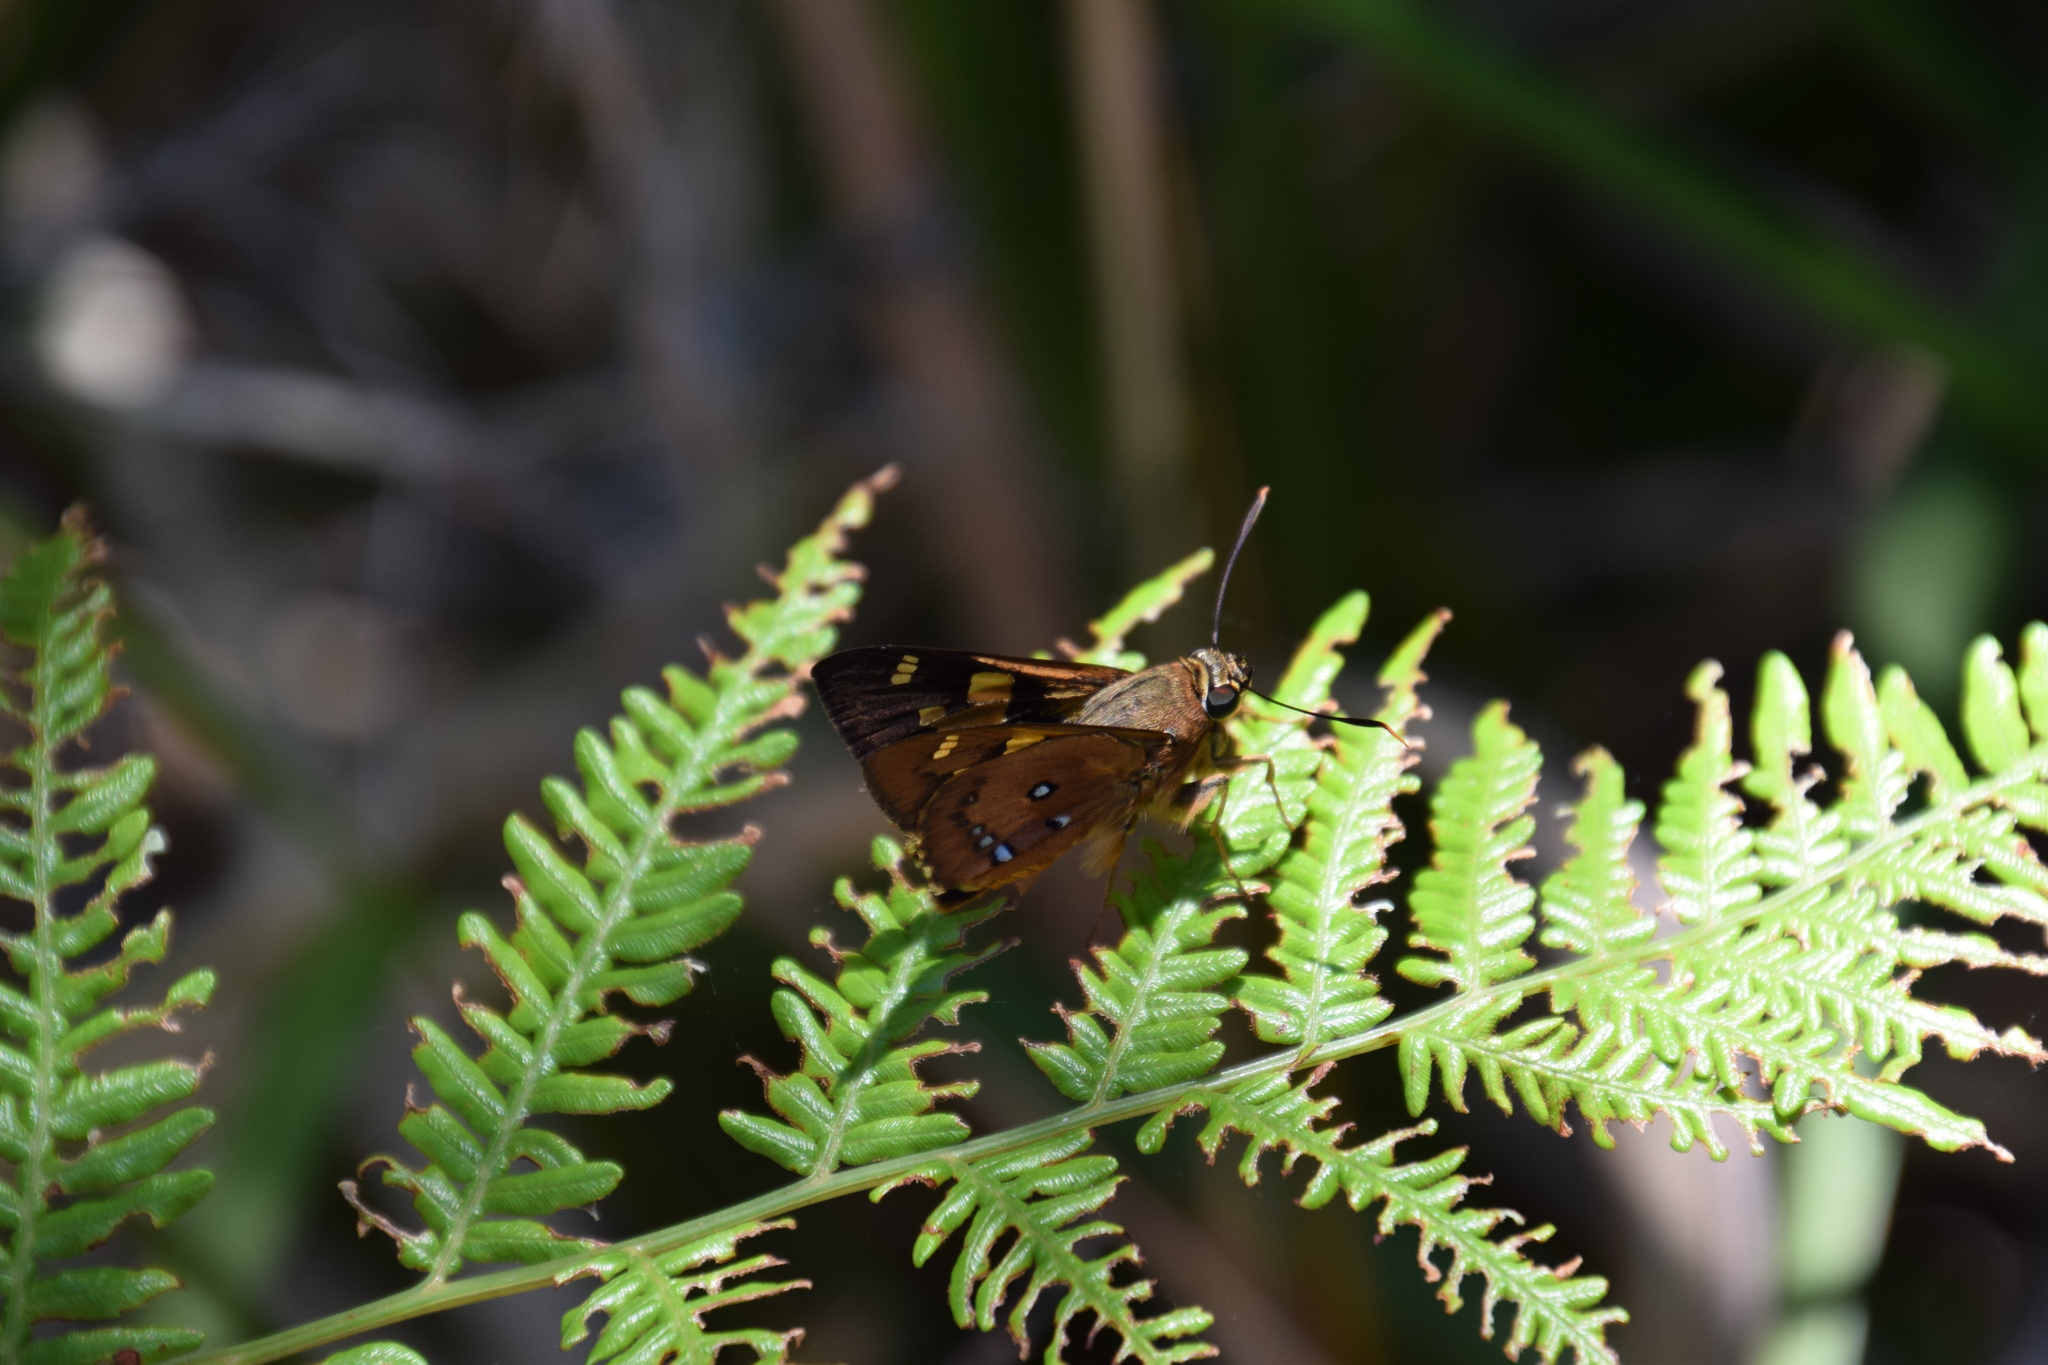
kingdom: Animalia
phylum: Arthropoda
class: Insecta
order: Lepidoptera
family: Hesperiidae
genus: Trapezites
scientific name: Trapezites symmomus
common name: Splendid ochre
